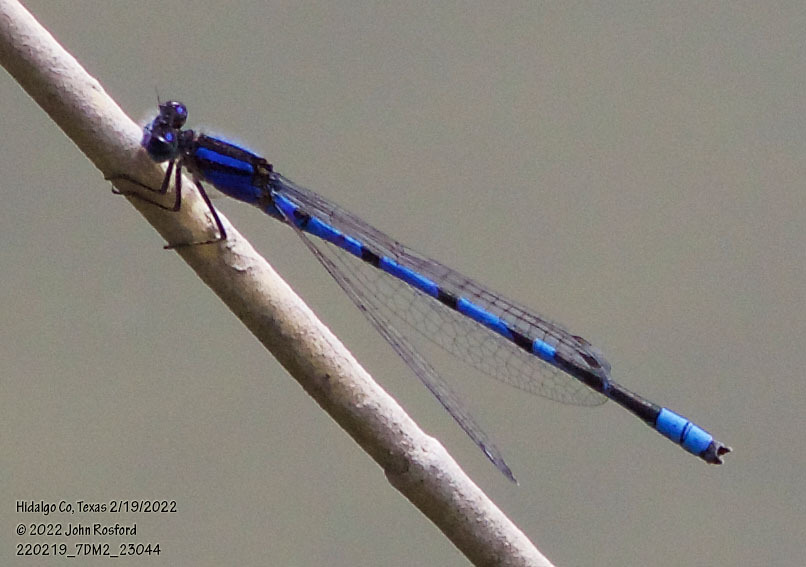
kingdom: Animalia
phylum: Arthropoda
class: Insecta
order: Odonata
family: Coenagrionidae
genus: Enallagma
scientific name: Enallagma civile
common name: Damselfly
